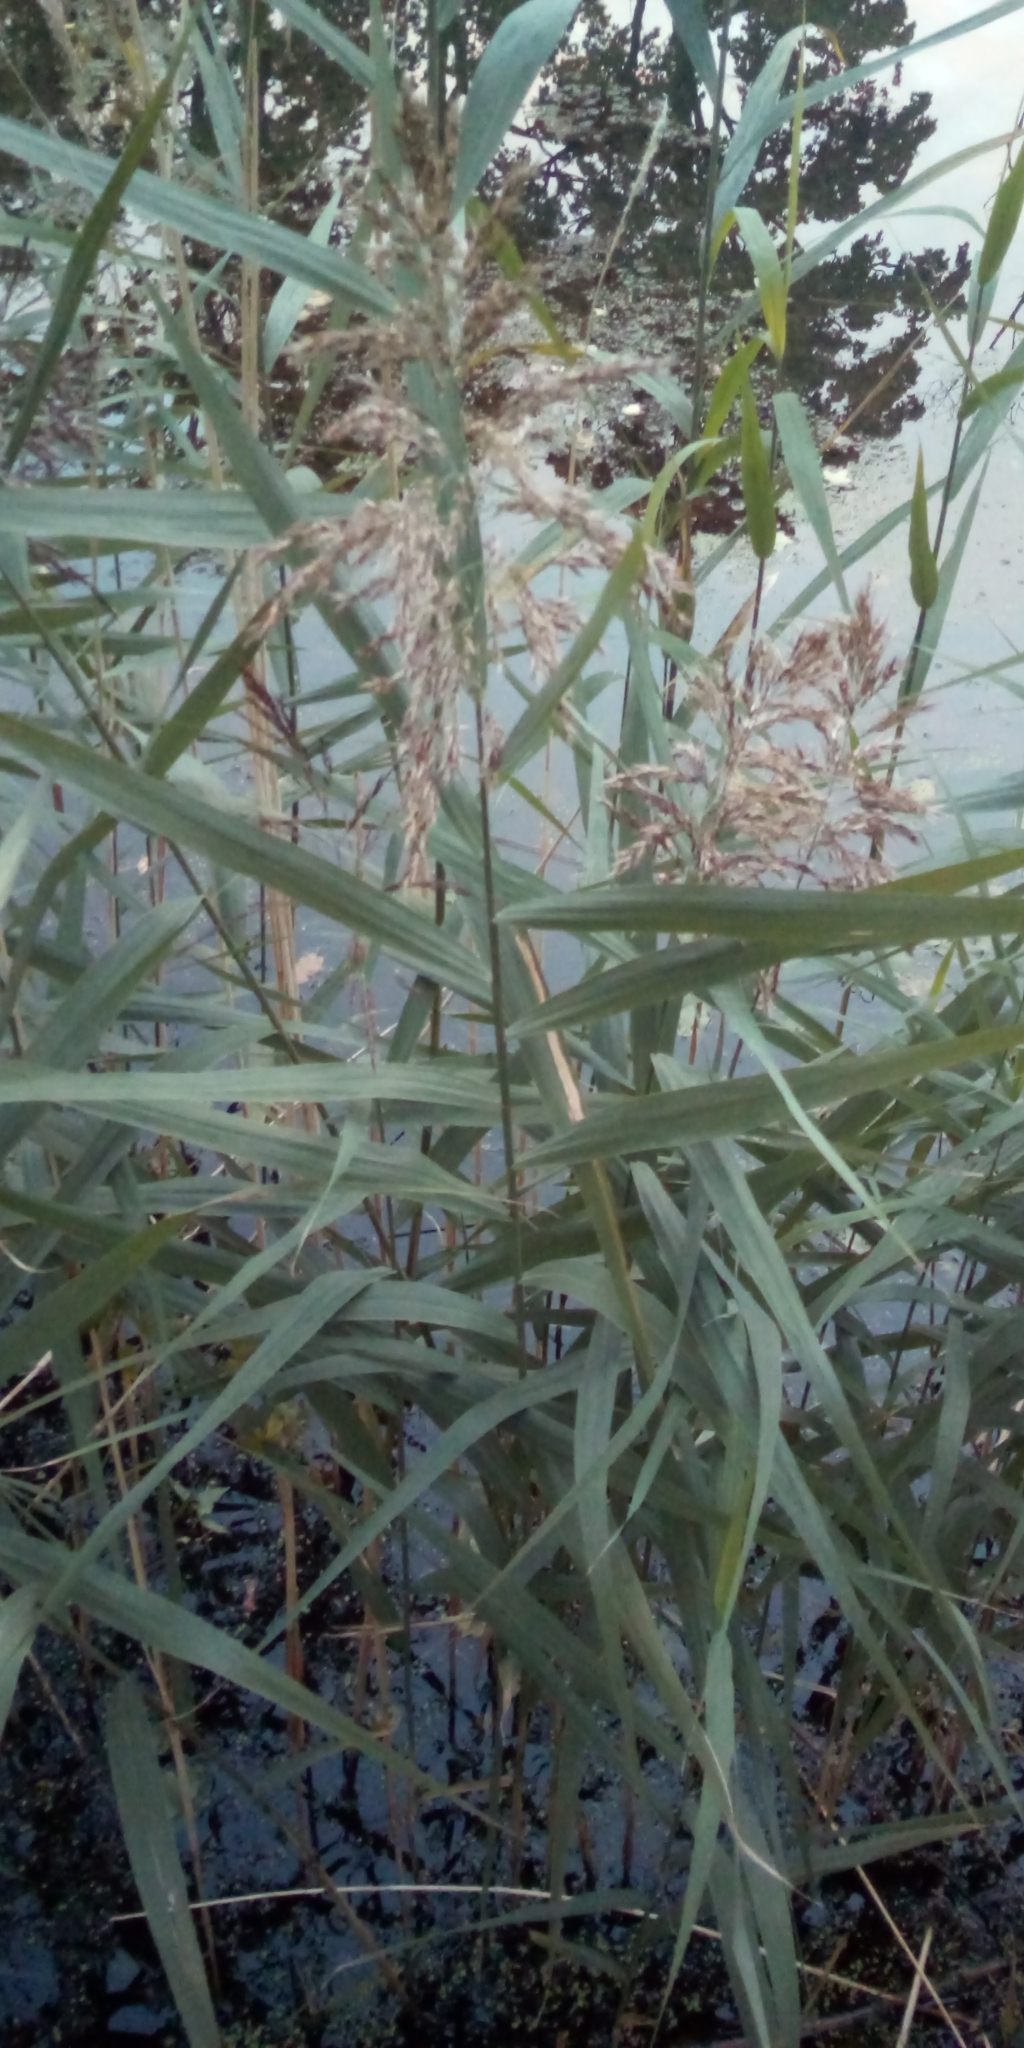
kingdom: Plantae
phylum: Tracheophyta
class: Liliopsida
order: Poales
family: Poaceae
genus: Phragmites
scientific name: Phragmites australis
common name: Common reed
